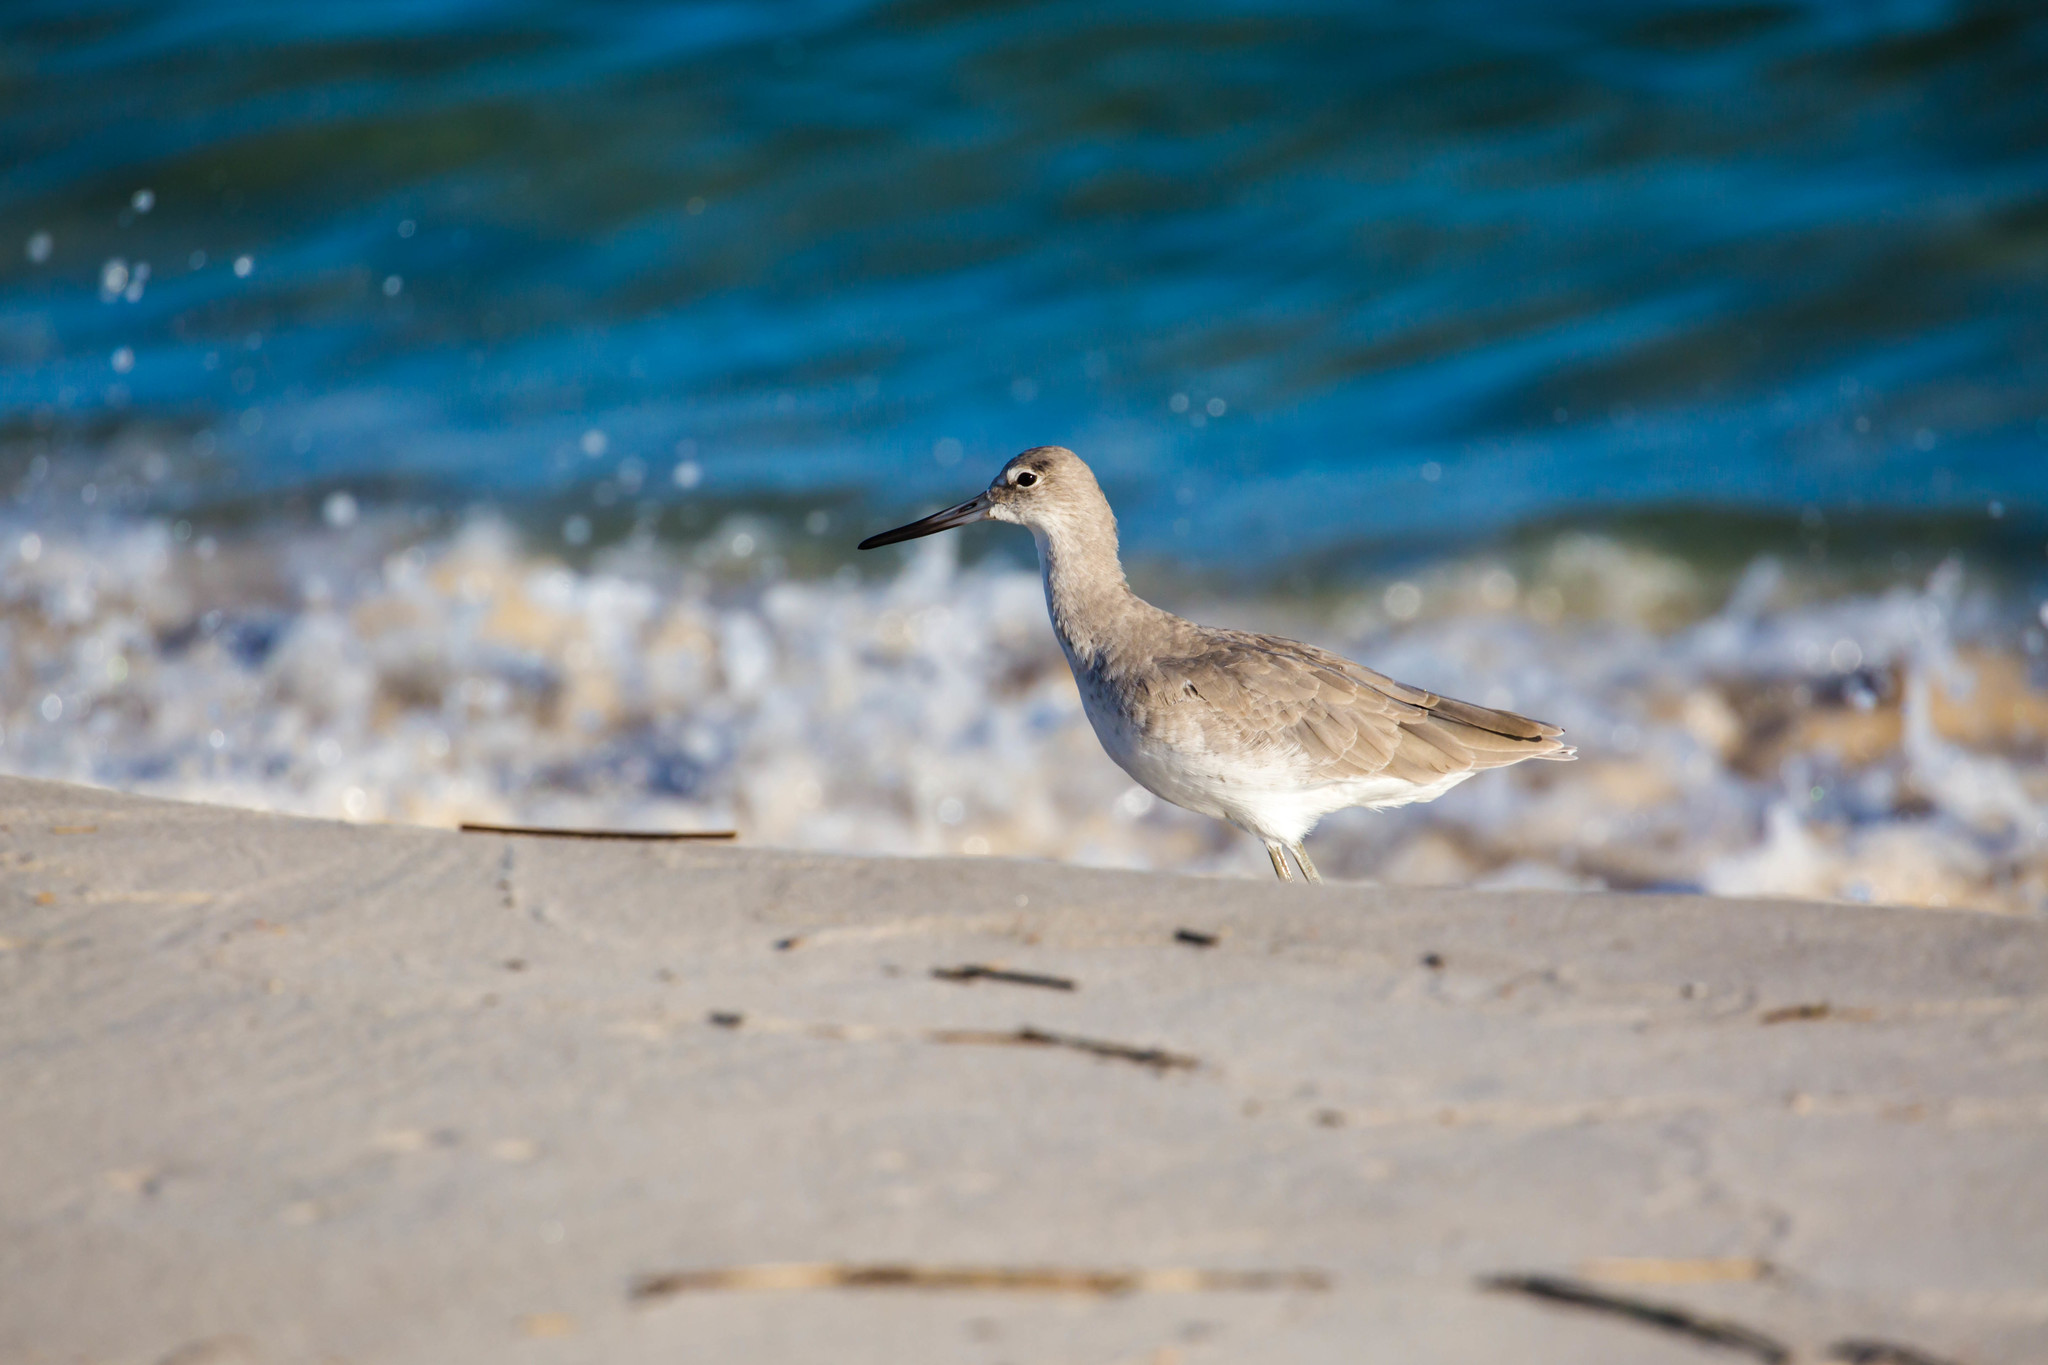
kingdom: Animalia
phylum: Chordata
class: Aves
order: Charadriiformes
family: Scolopacidae
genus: Tringa
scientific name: Tringa semipalmata
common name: Willet
